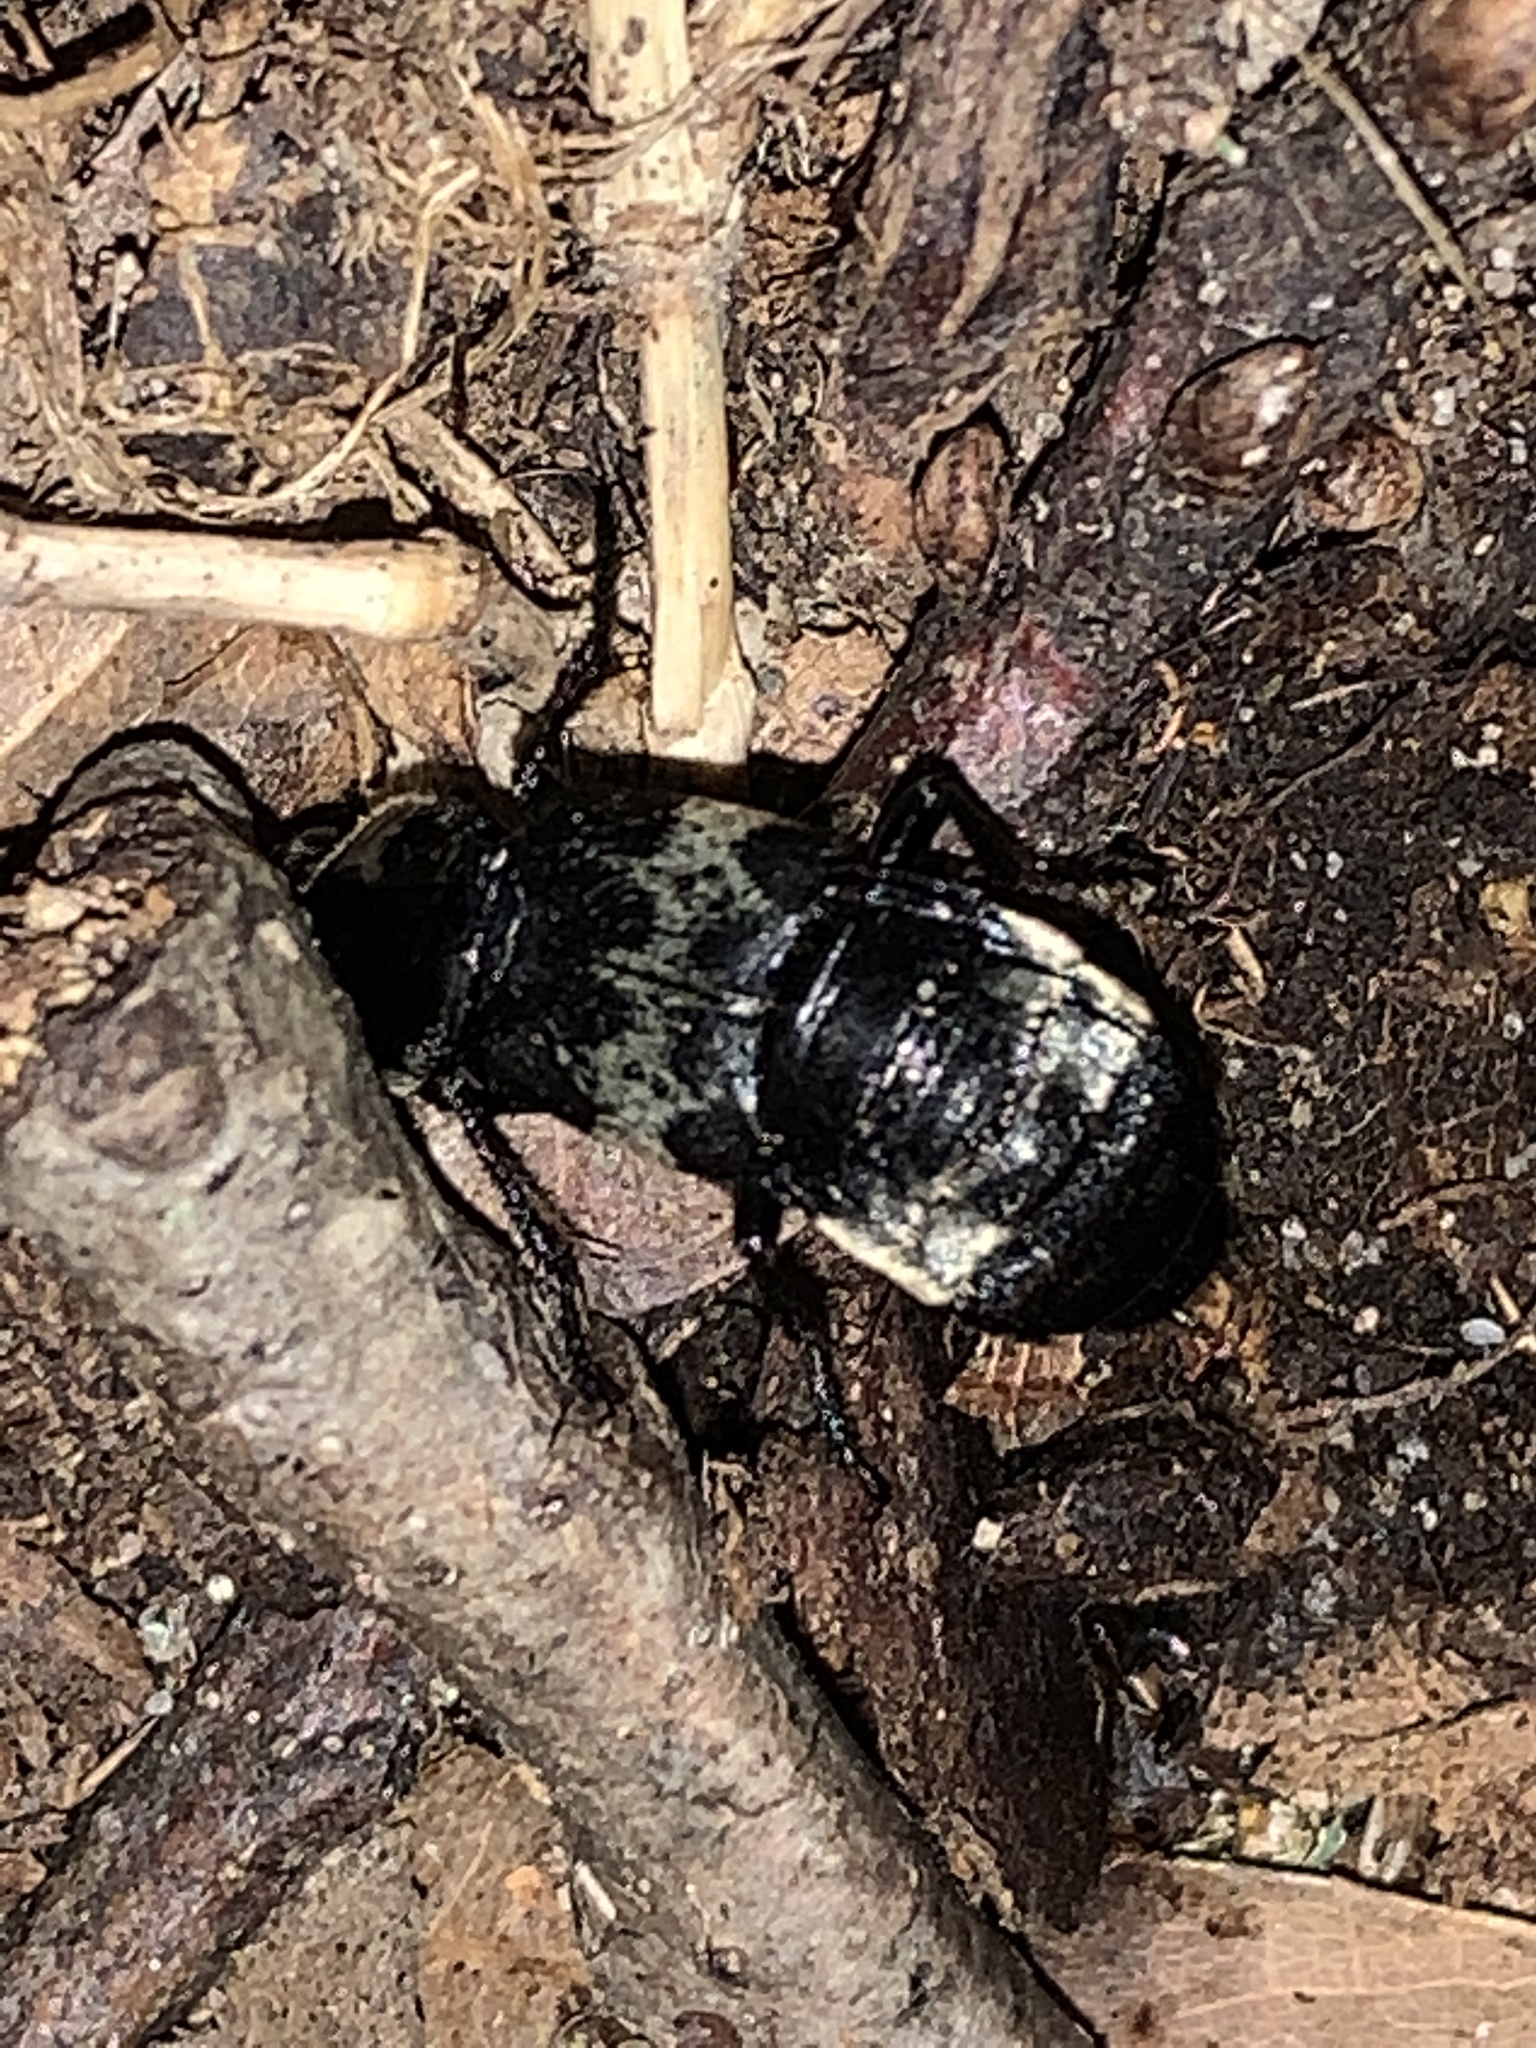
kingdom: Animalia
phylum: Arthropoda
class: Insecta
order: Coleoptera
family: Staphylinidae
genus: Creophilus
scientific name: Creophilus maxillosus
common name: Hairy rove beetle
